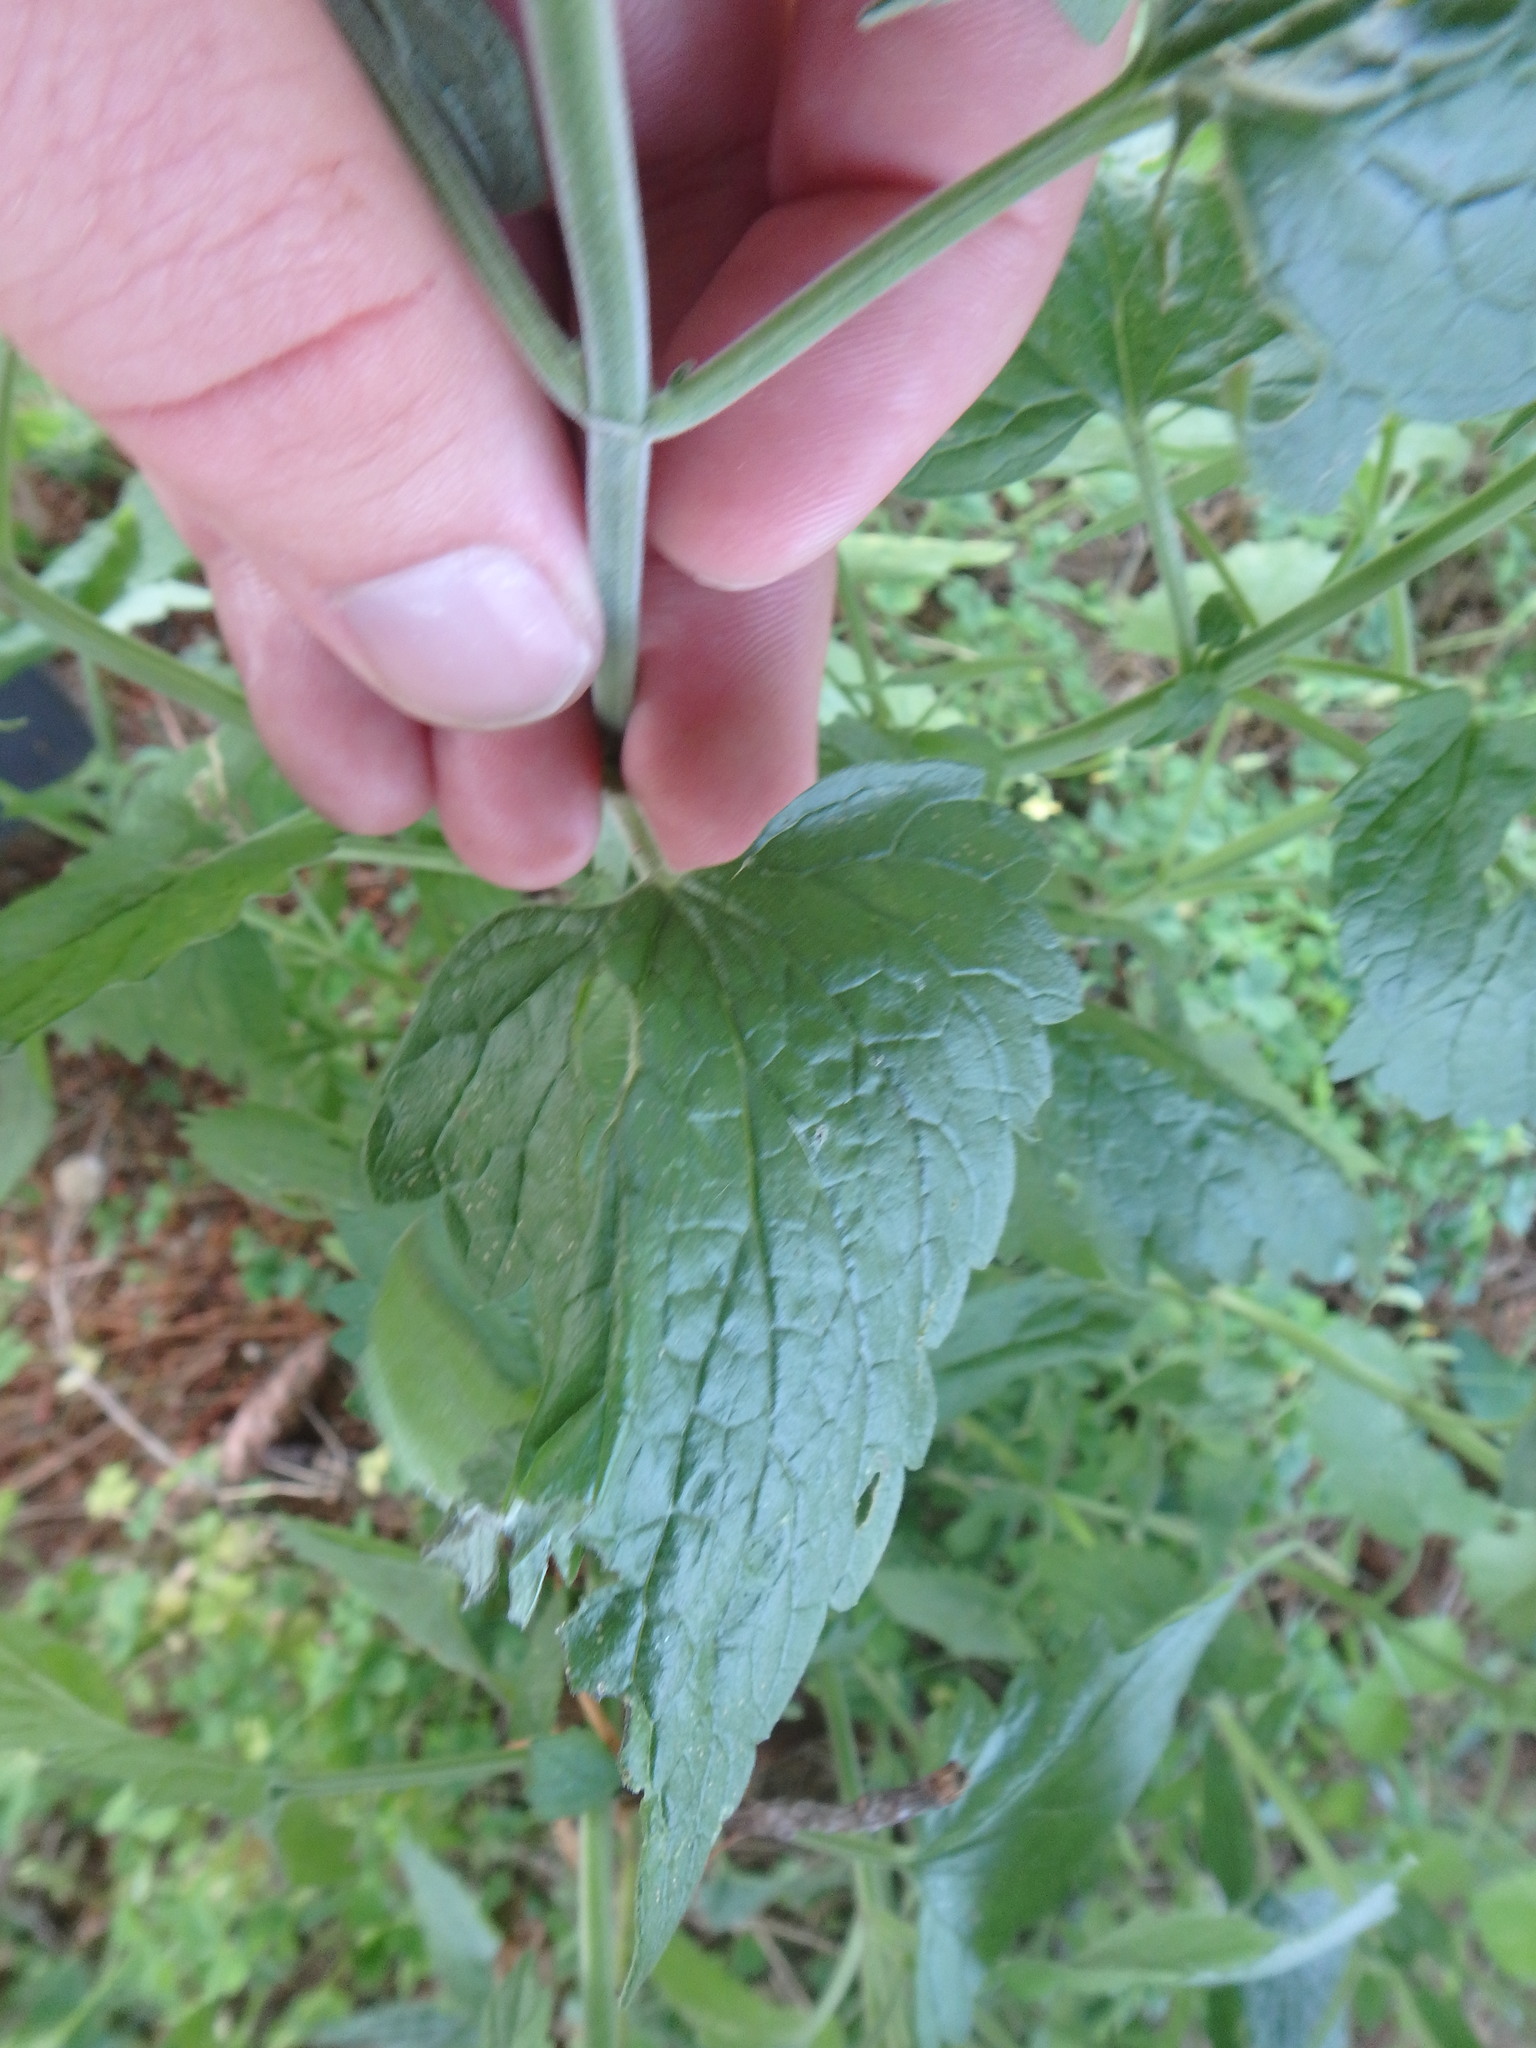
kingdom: Plantae
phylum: Tracheophyta
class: Magnoliopsida
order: Lamiales
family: Lamiaceae
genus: Nepeta
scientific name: Nepeta cataria
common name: Catnip
